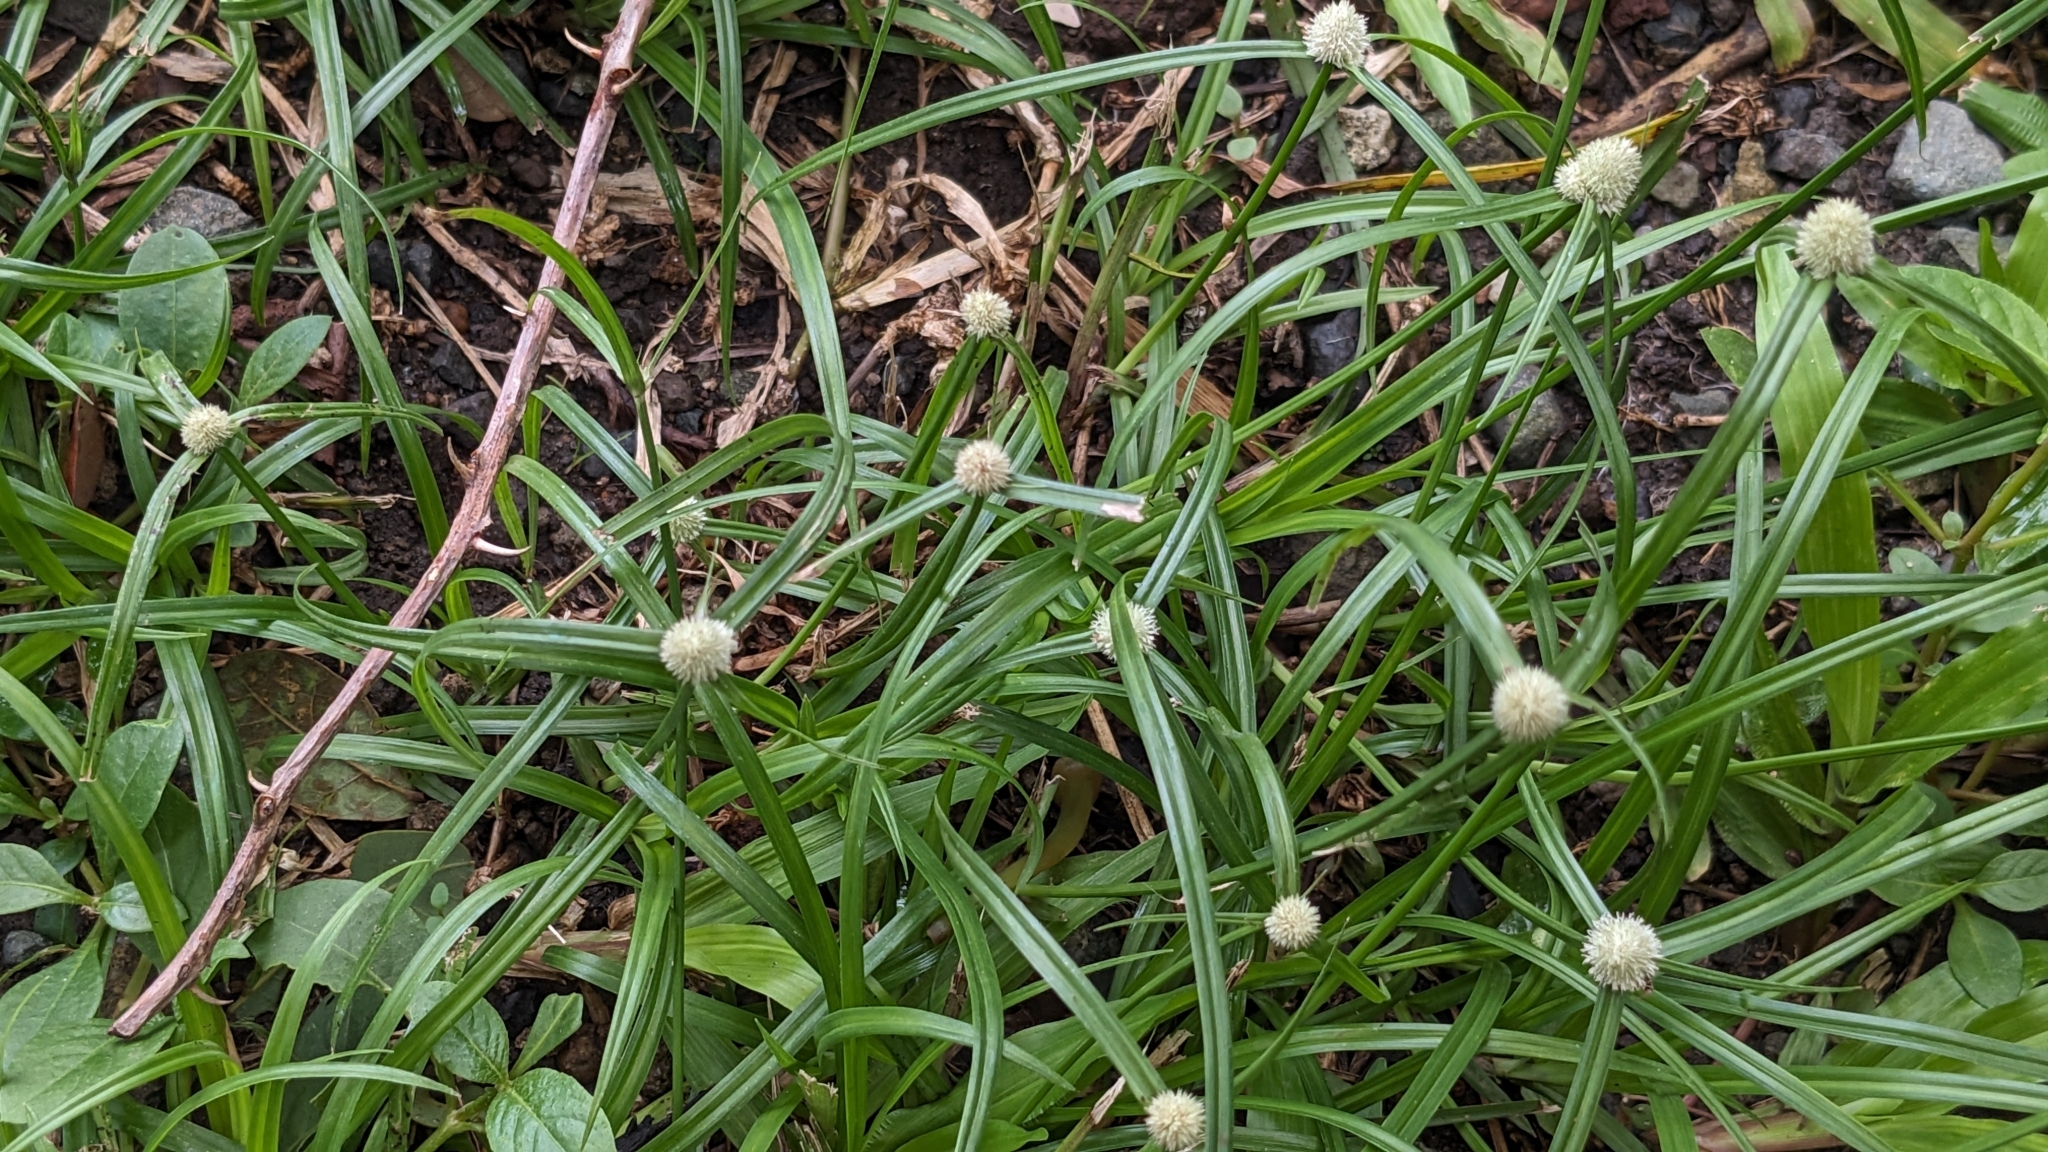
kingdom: Plantae
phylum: Tracheophyta
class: Liliopsida
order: Poales
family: Cyperaceae
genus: Cyperus
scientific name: Cyperus mindorensis
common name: Flatsedge
